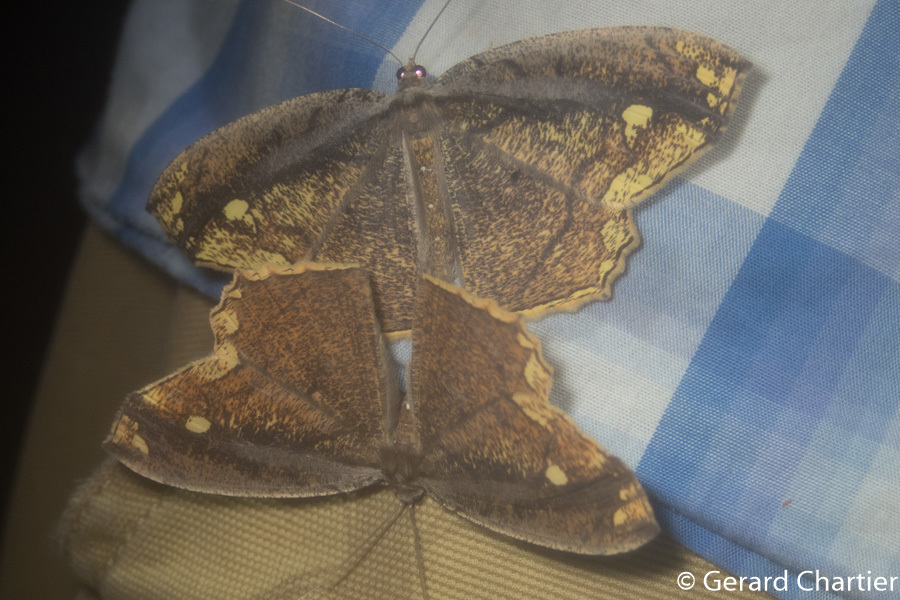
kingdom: Animalia
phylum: Arthropoda
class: Insecta
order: Lepidoptera
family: Geometridae
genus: Pareumelea
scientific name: Pareumelea eugeniata
